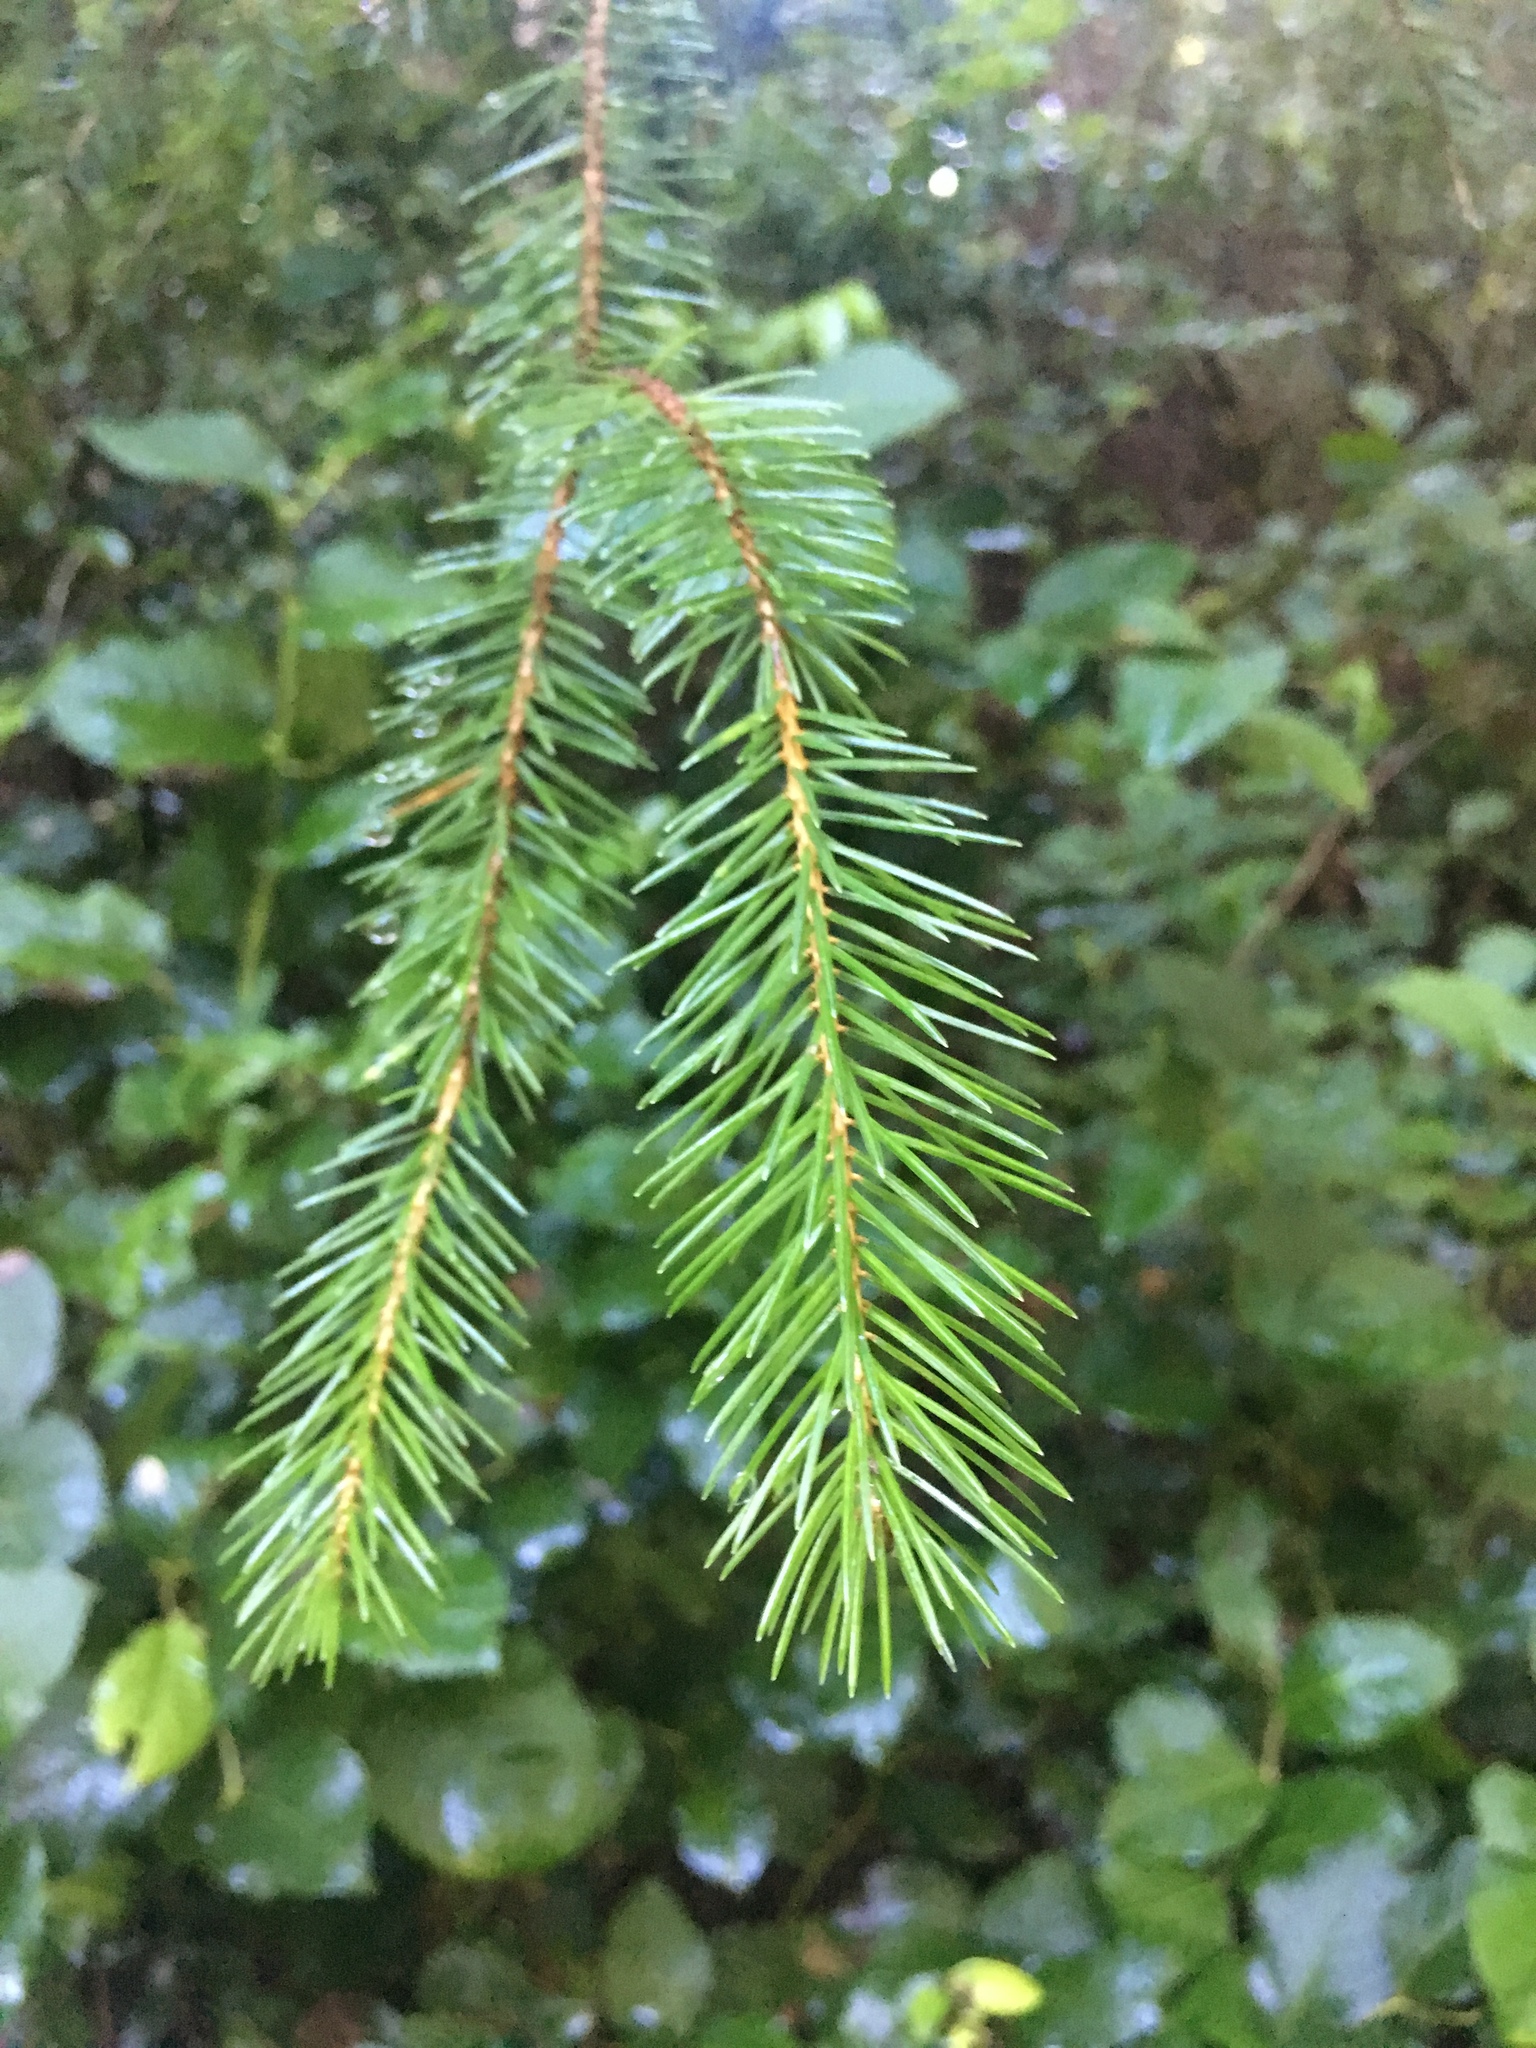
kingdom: Plantae
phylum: Tracheophyta
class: Pinopsida
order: Pinales
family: Pinaceae
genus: Picea
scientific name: Picea sitchensis
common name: Sitka spruce
